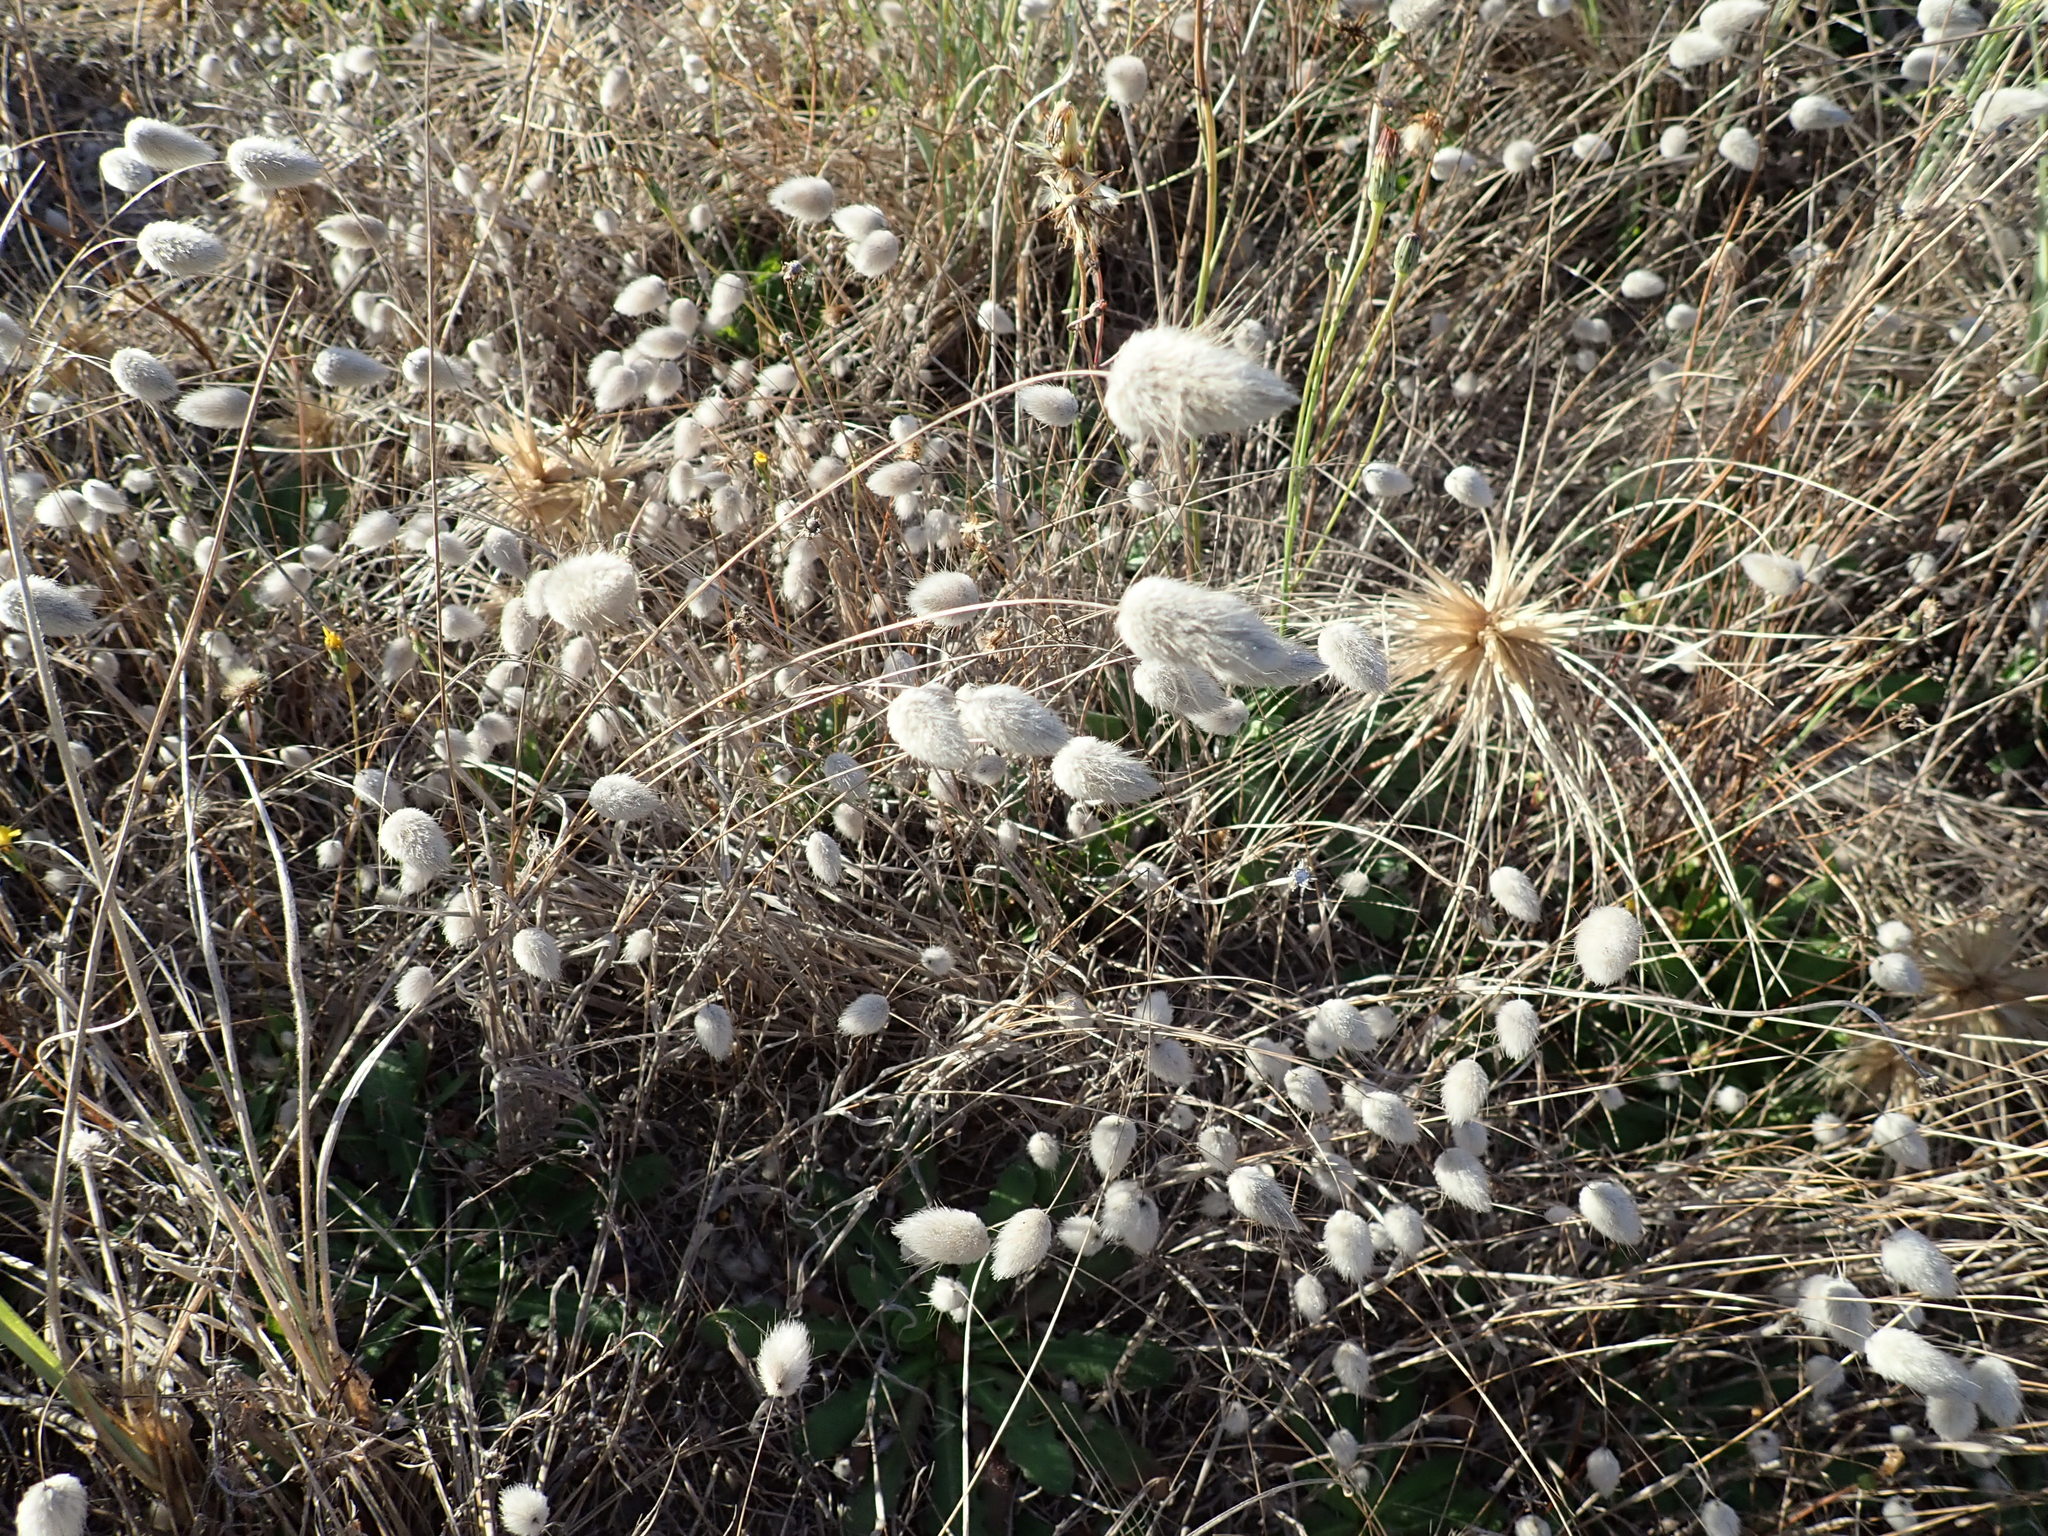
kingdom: Plantae
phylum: Tracheophyta
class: Liliopsida
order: Poales
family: Poaceae
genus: Lagurus
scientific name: Lagurus ovatus
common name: Hare's-tail
